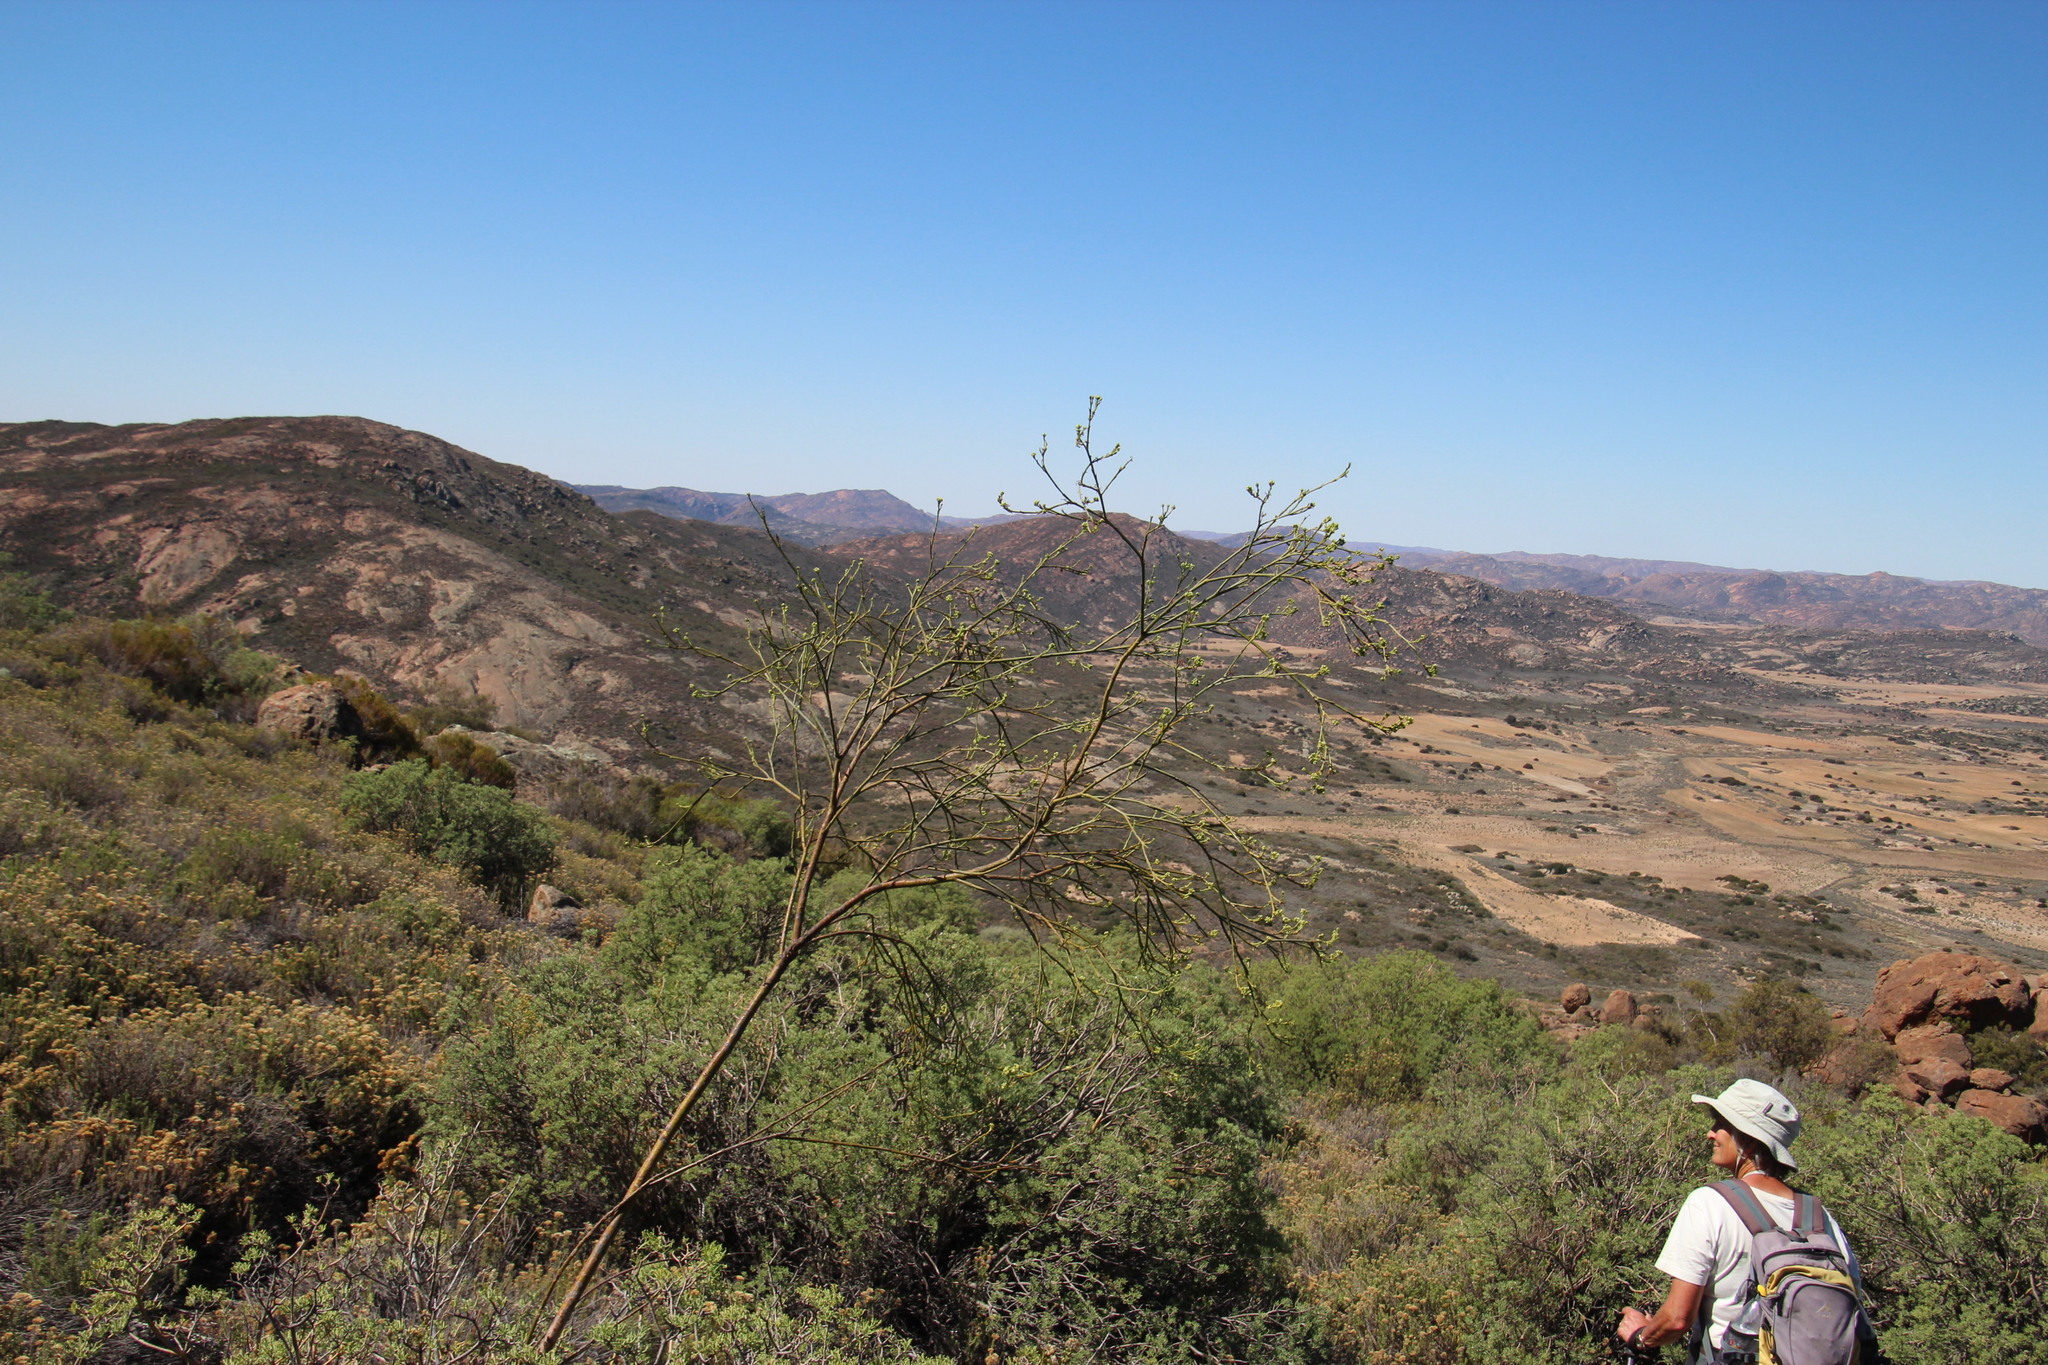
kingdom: Plantae
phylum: Tracheophyta
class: Magnoliopsida
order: Santalales
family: Thesiaceae
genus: Thesium
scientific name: Thesium strictum
